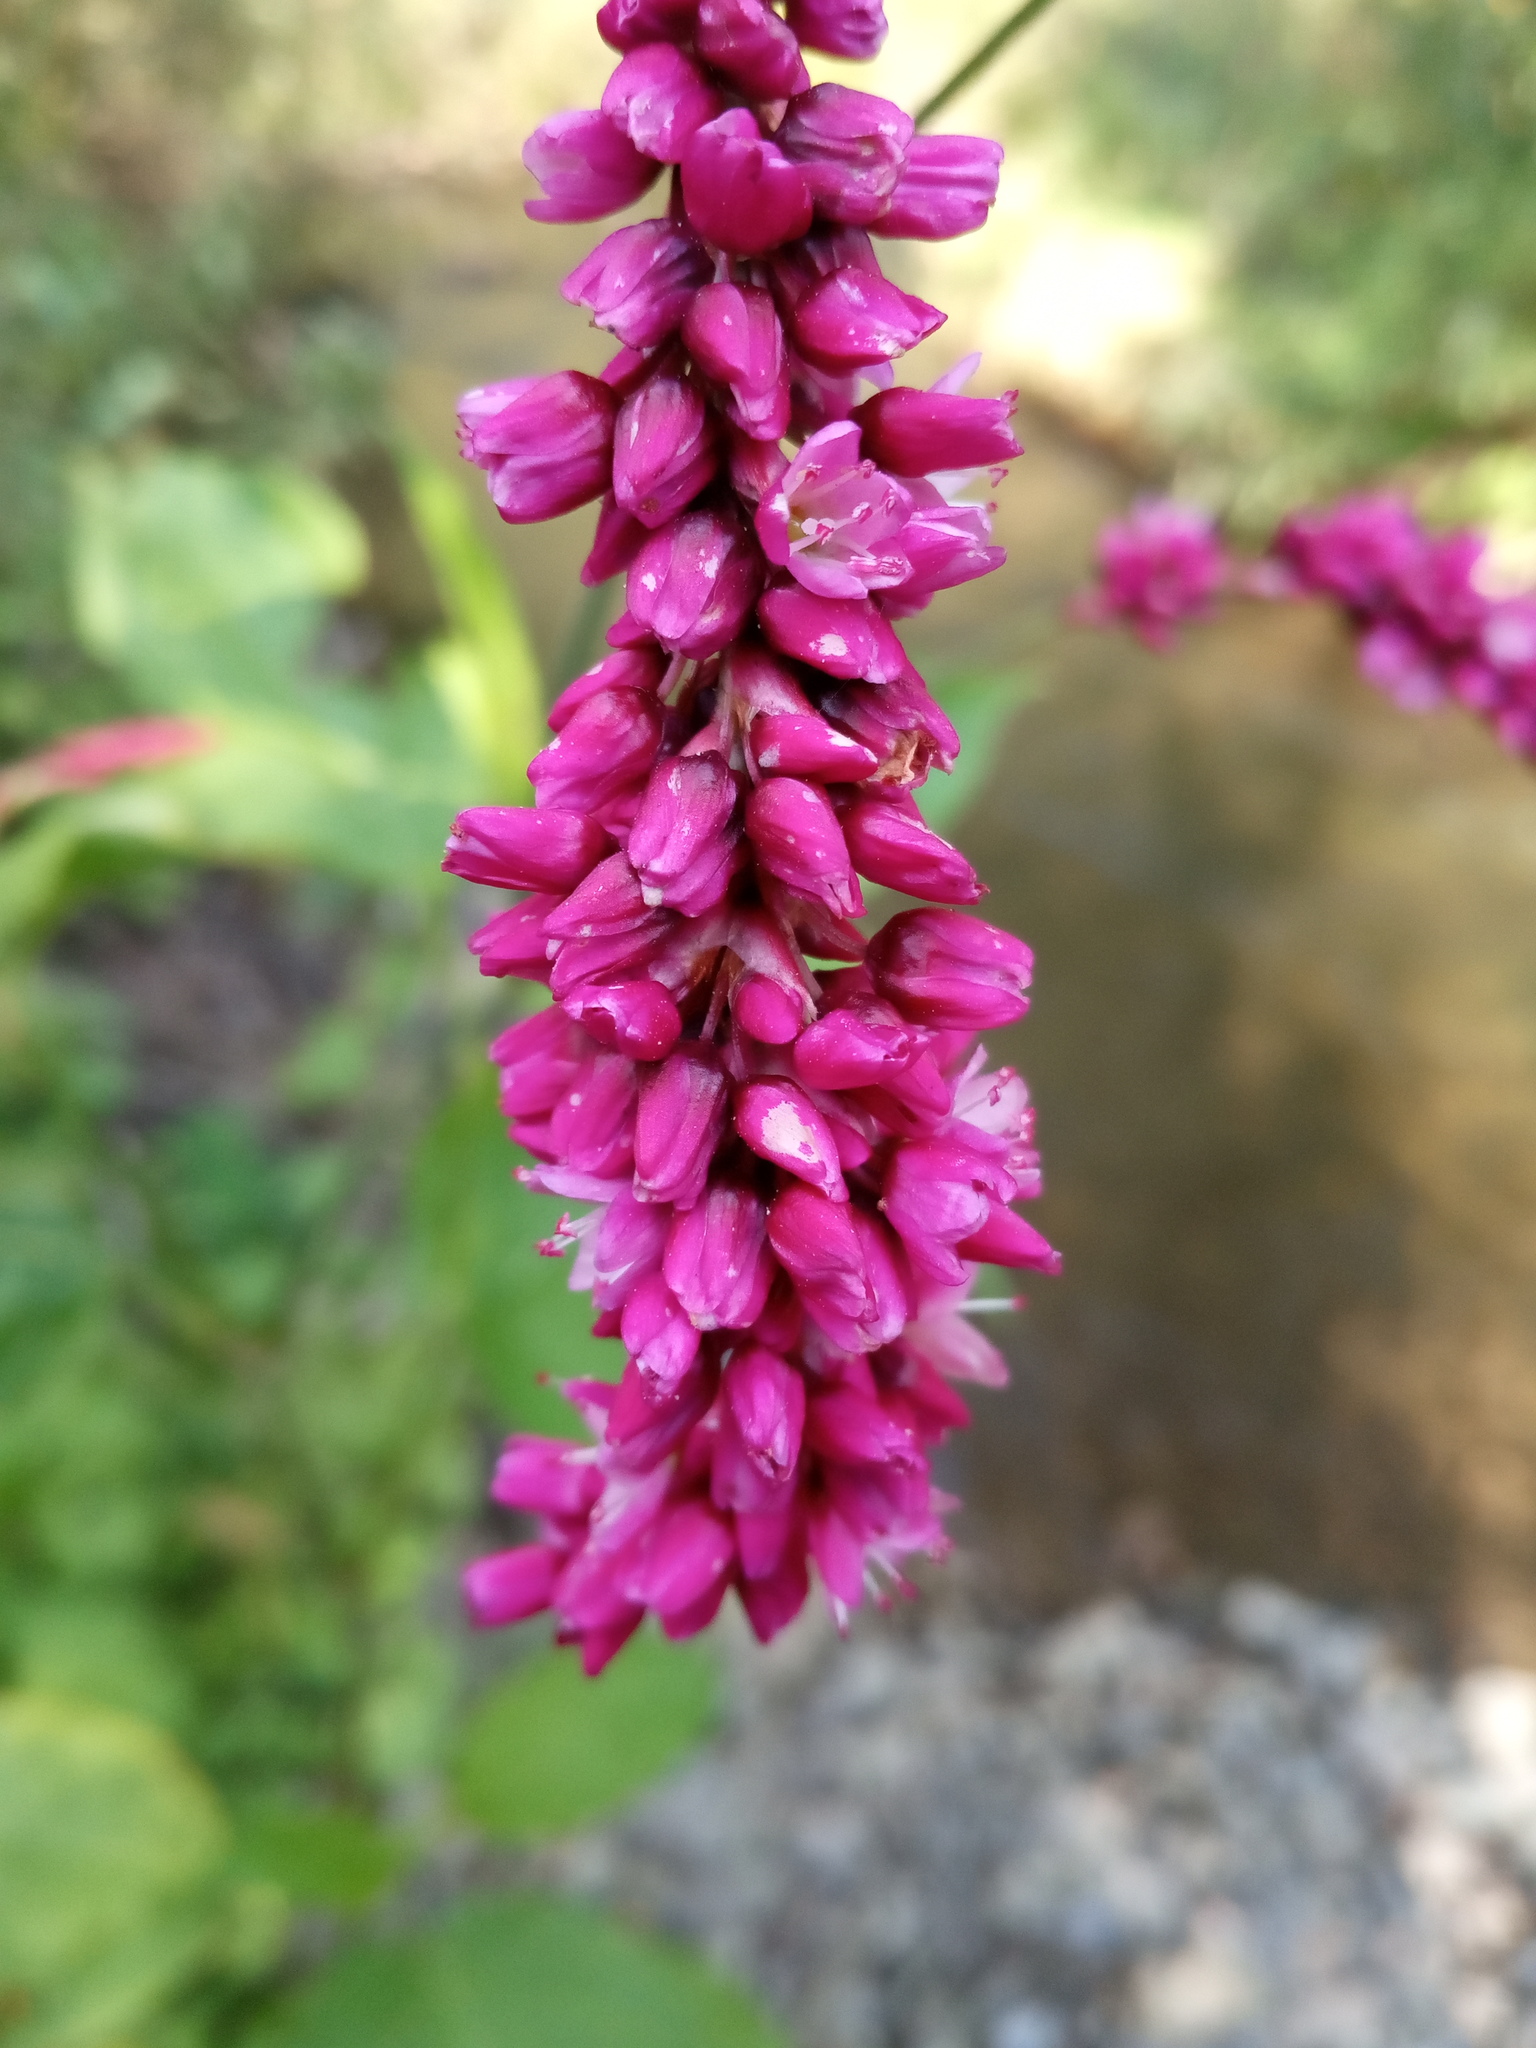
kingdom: Plantae
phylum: Tracheophyta
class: Magnoliopsida
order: Caryophyllales
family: Polygonaceae
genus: Persicaria
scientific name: Persicaria orientalis
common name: Kiss-me-over-the-garden-gate
